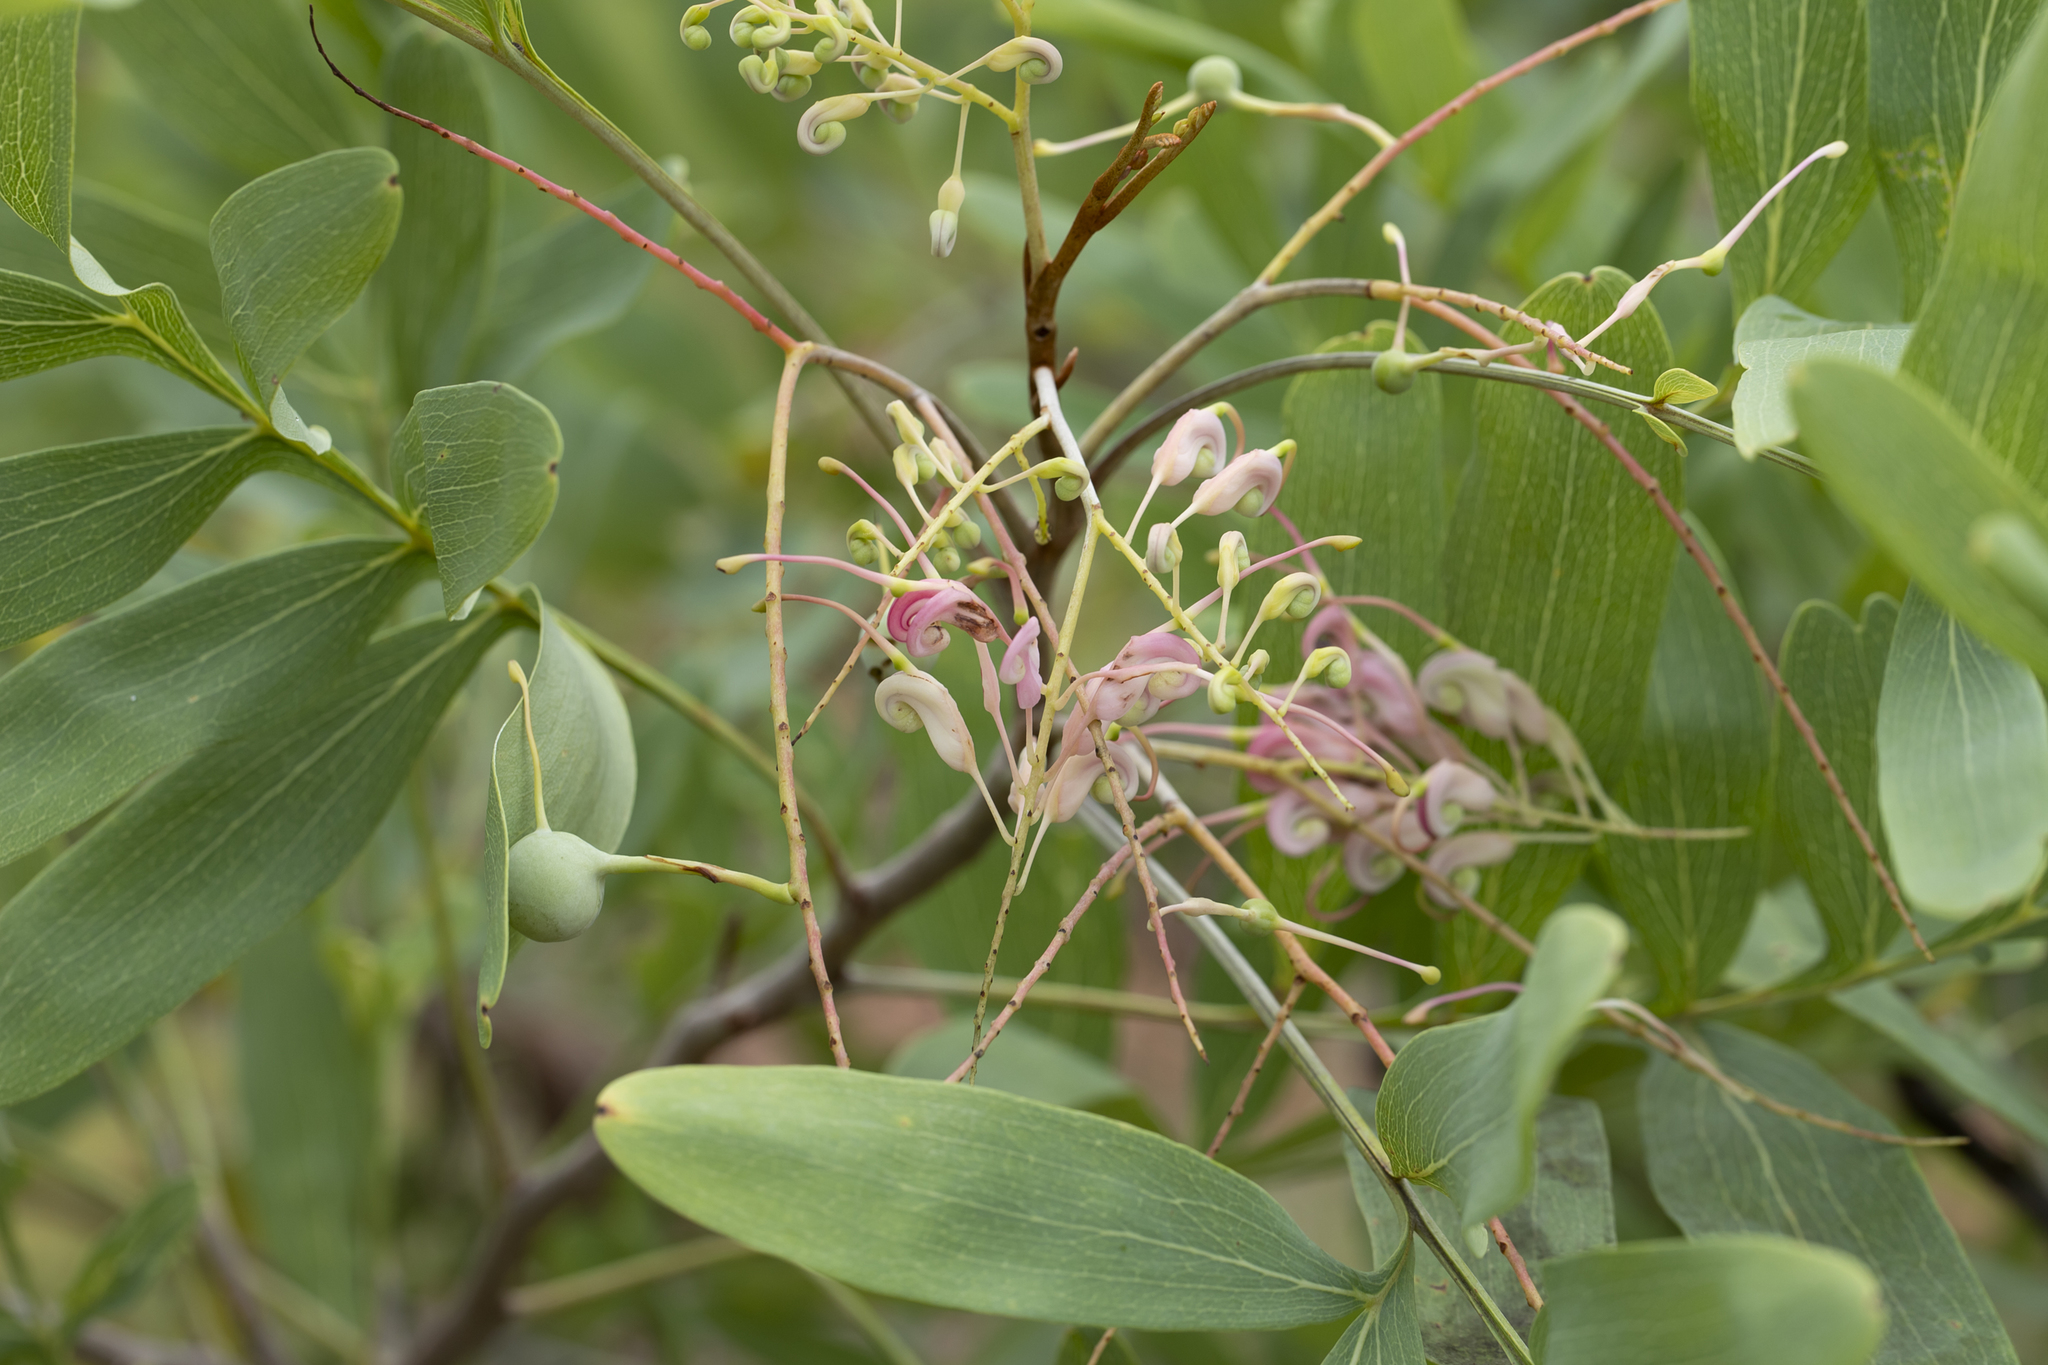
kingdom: Plantae
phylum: Tracheophyta
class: Magnoliopsida
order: Proteales
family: Proteaceae
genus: Grevillea
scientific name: Grevillea decurrens
